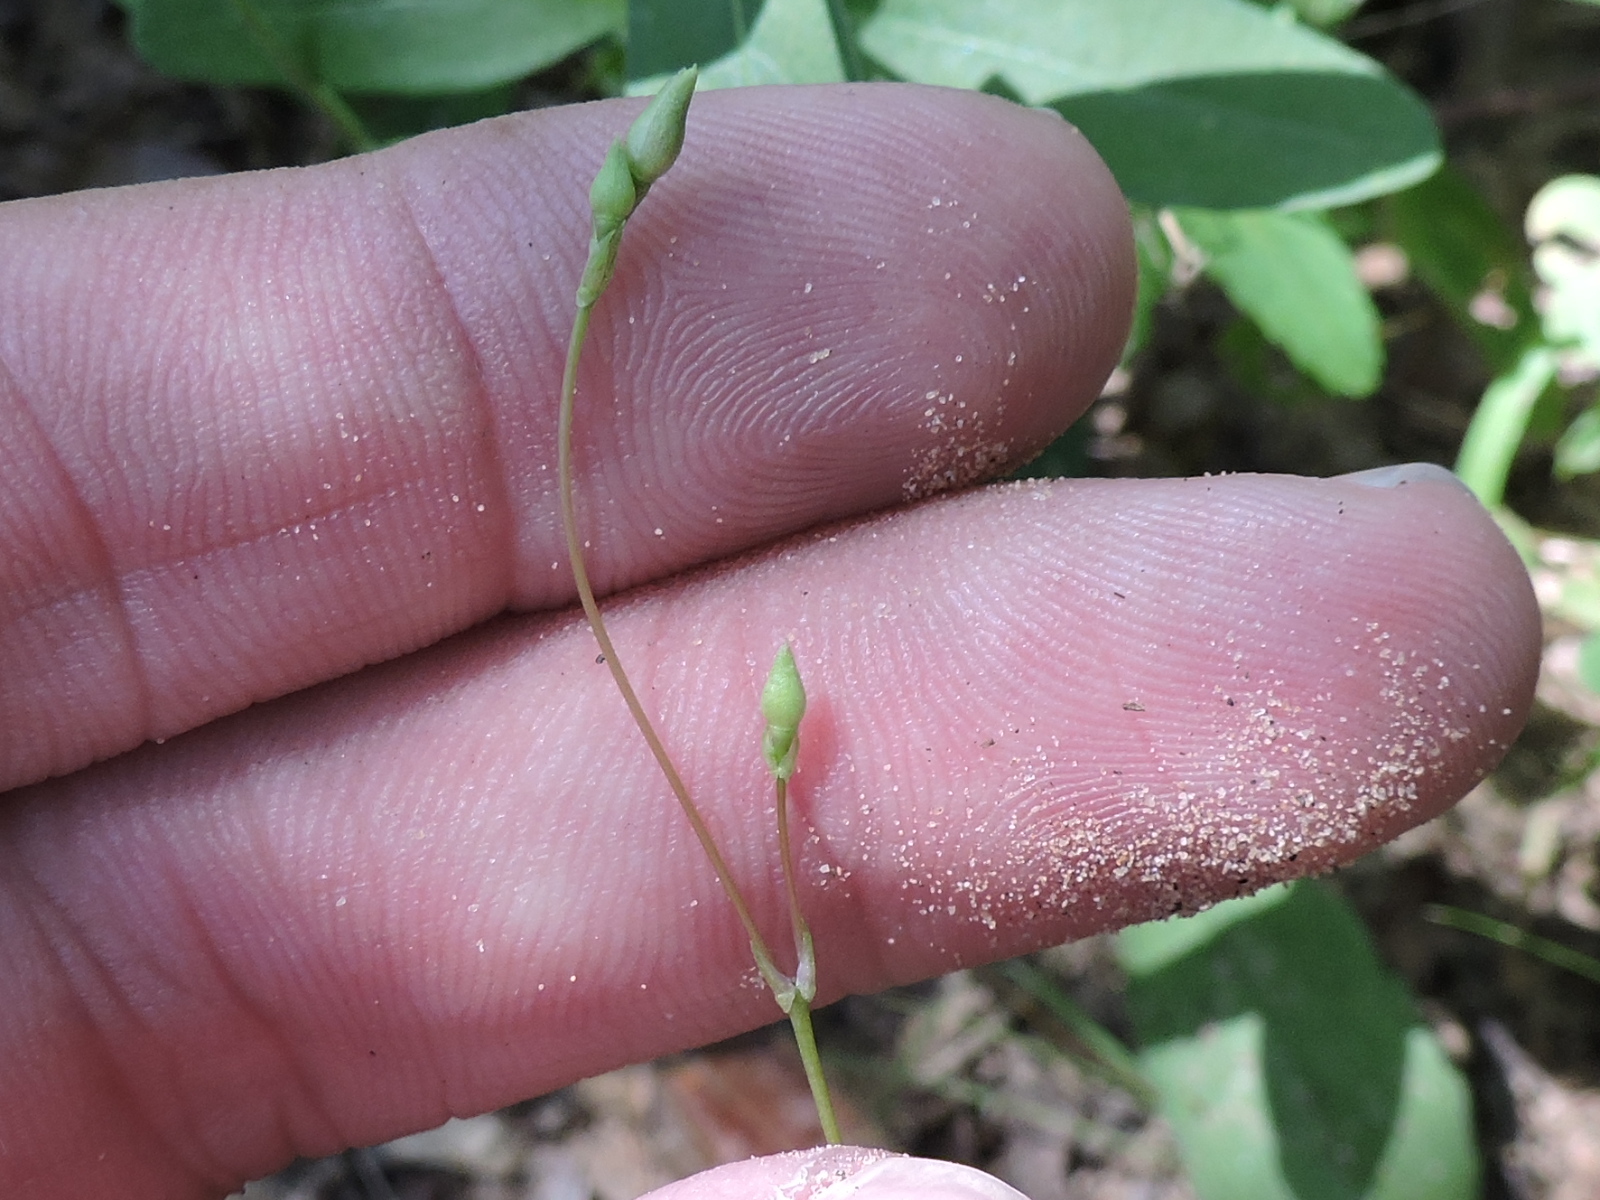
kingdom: Plantae
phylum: Tracheophyta
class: Magnoliopsida
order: Caryophyllales
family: Montiaceae
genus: Phemeranthus
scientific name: Phemeranthus parviflorus
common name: Sunbright
